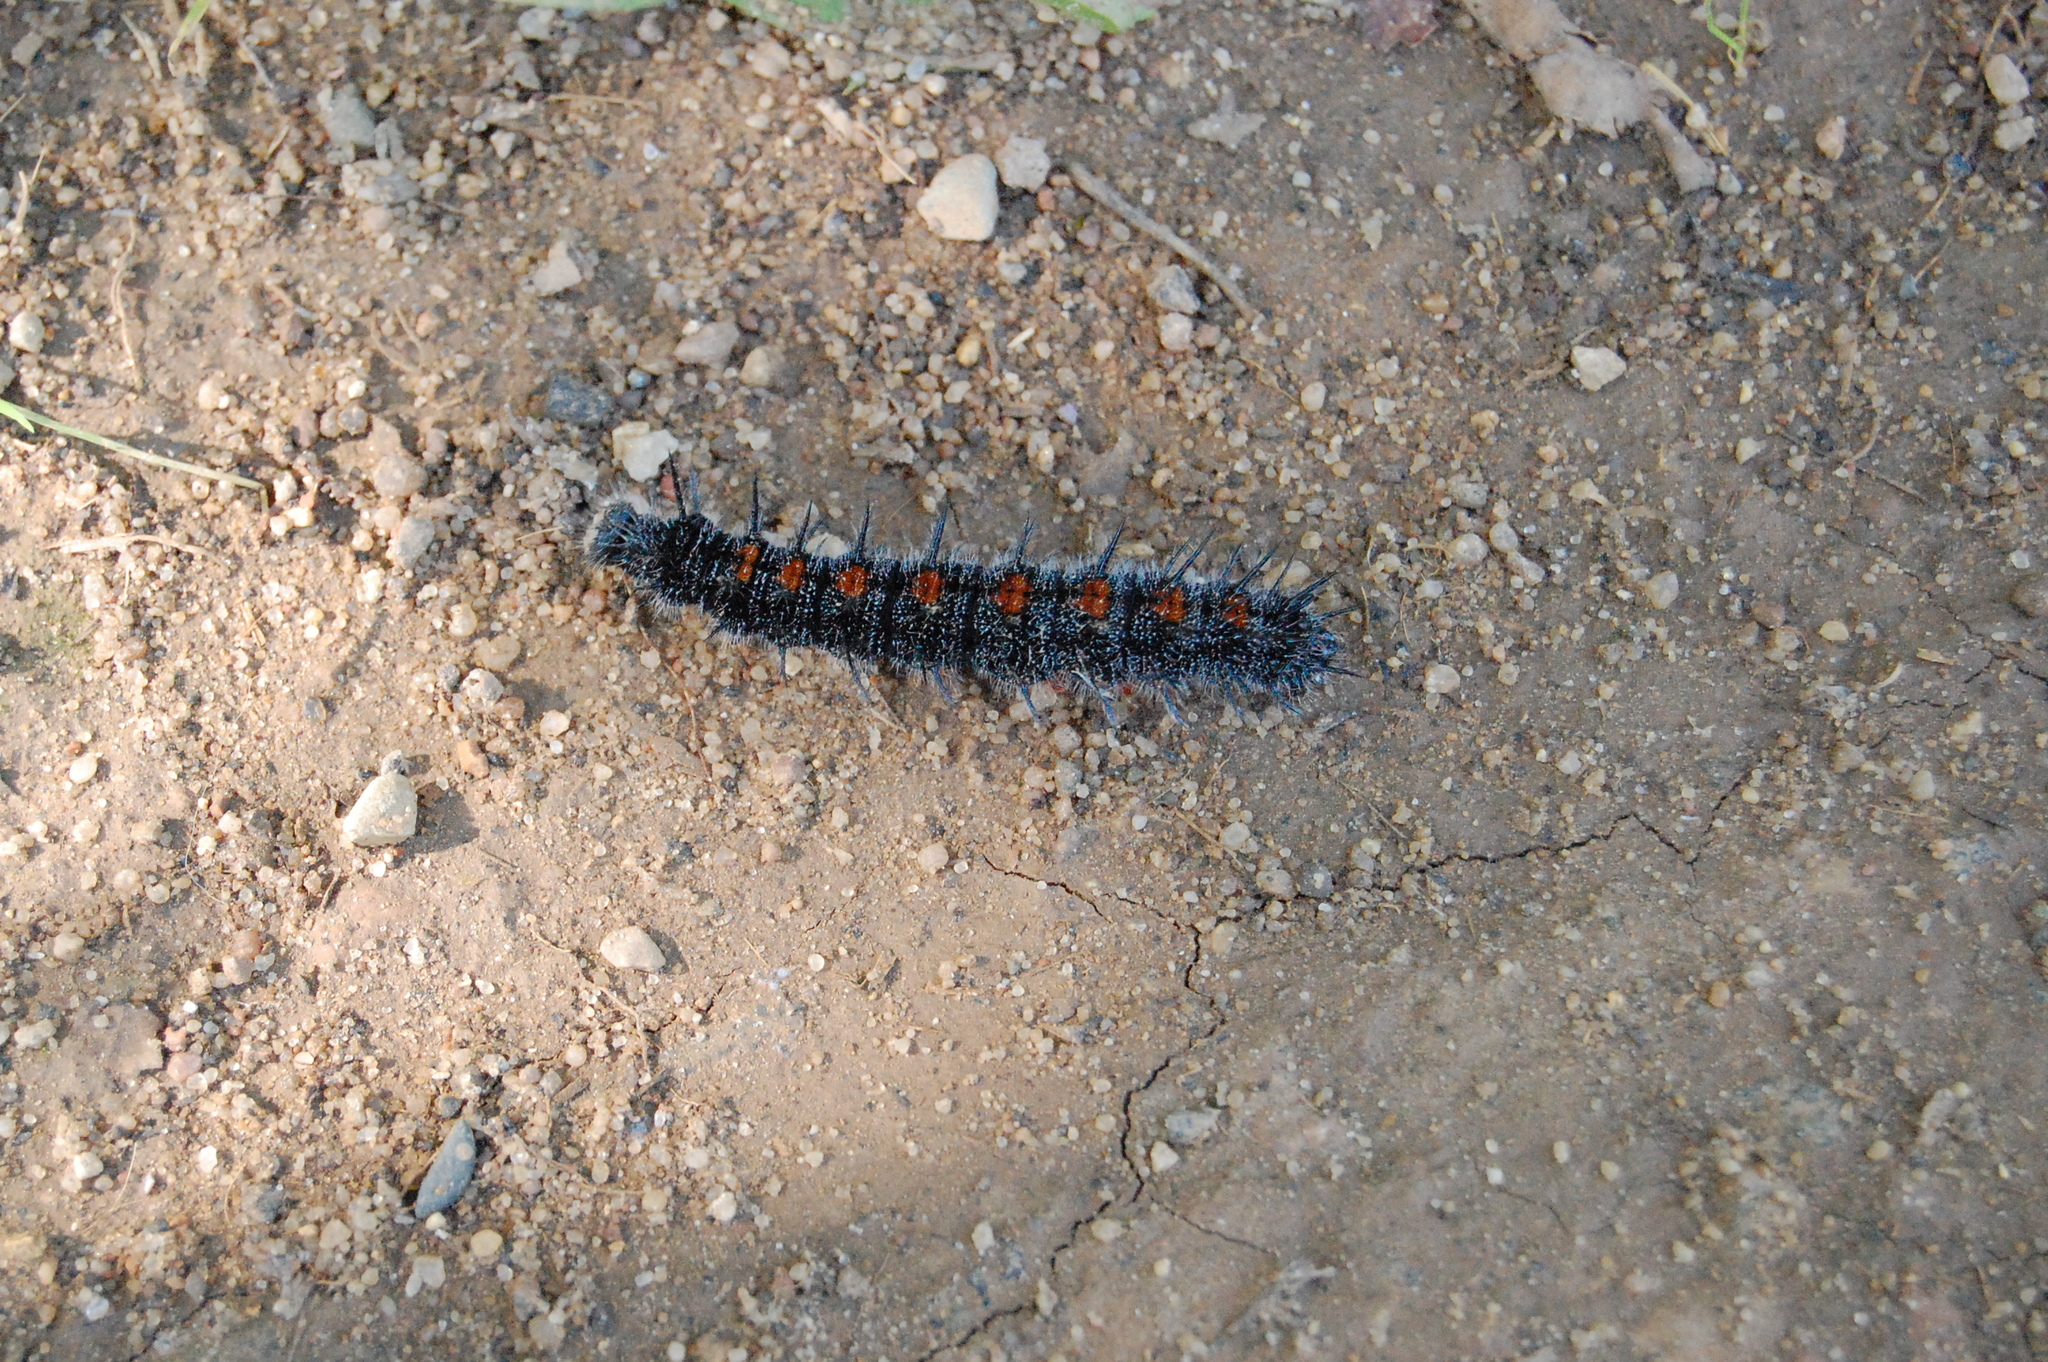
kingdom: Animalia
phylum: Arthropoda
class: Insecta
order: Lepidoptera
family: Nymphalidae
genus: Nymphalis
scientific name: Nymphalis antiopa
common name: Camberwell beauty
